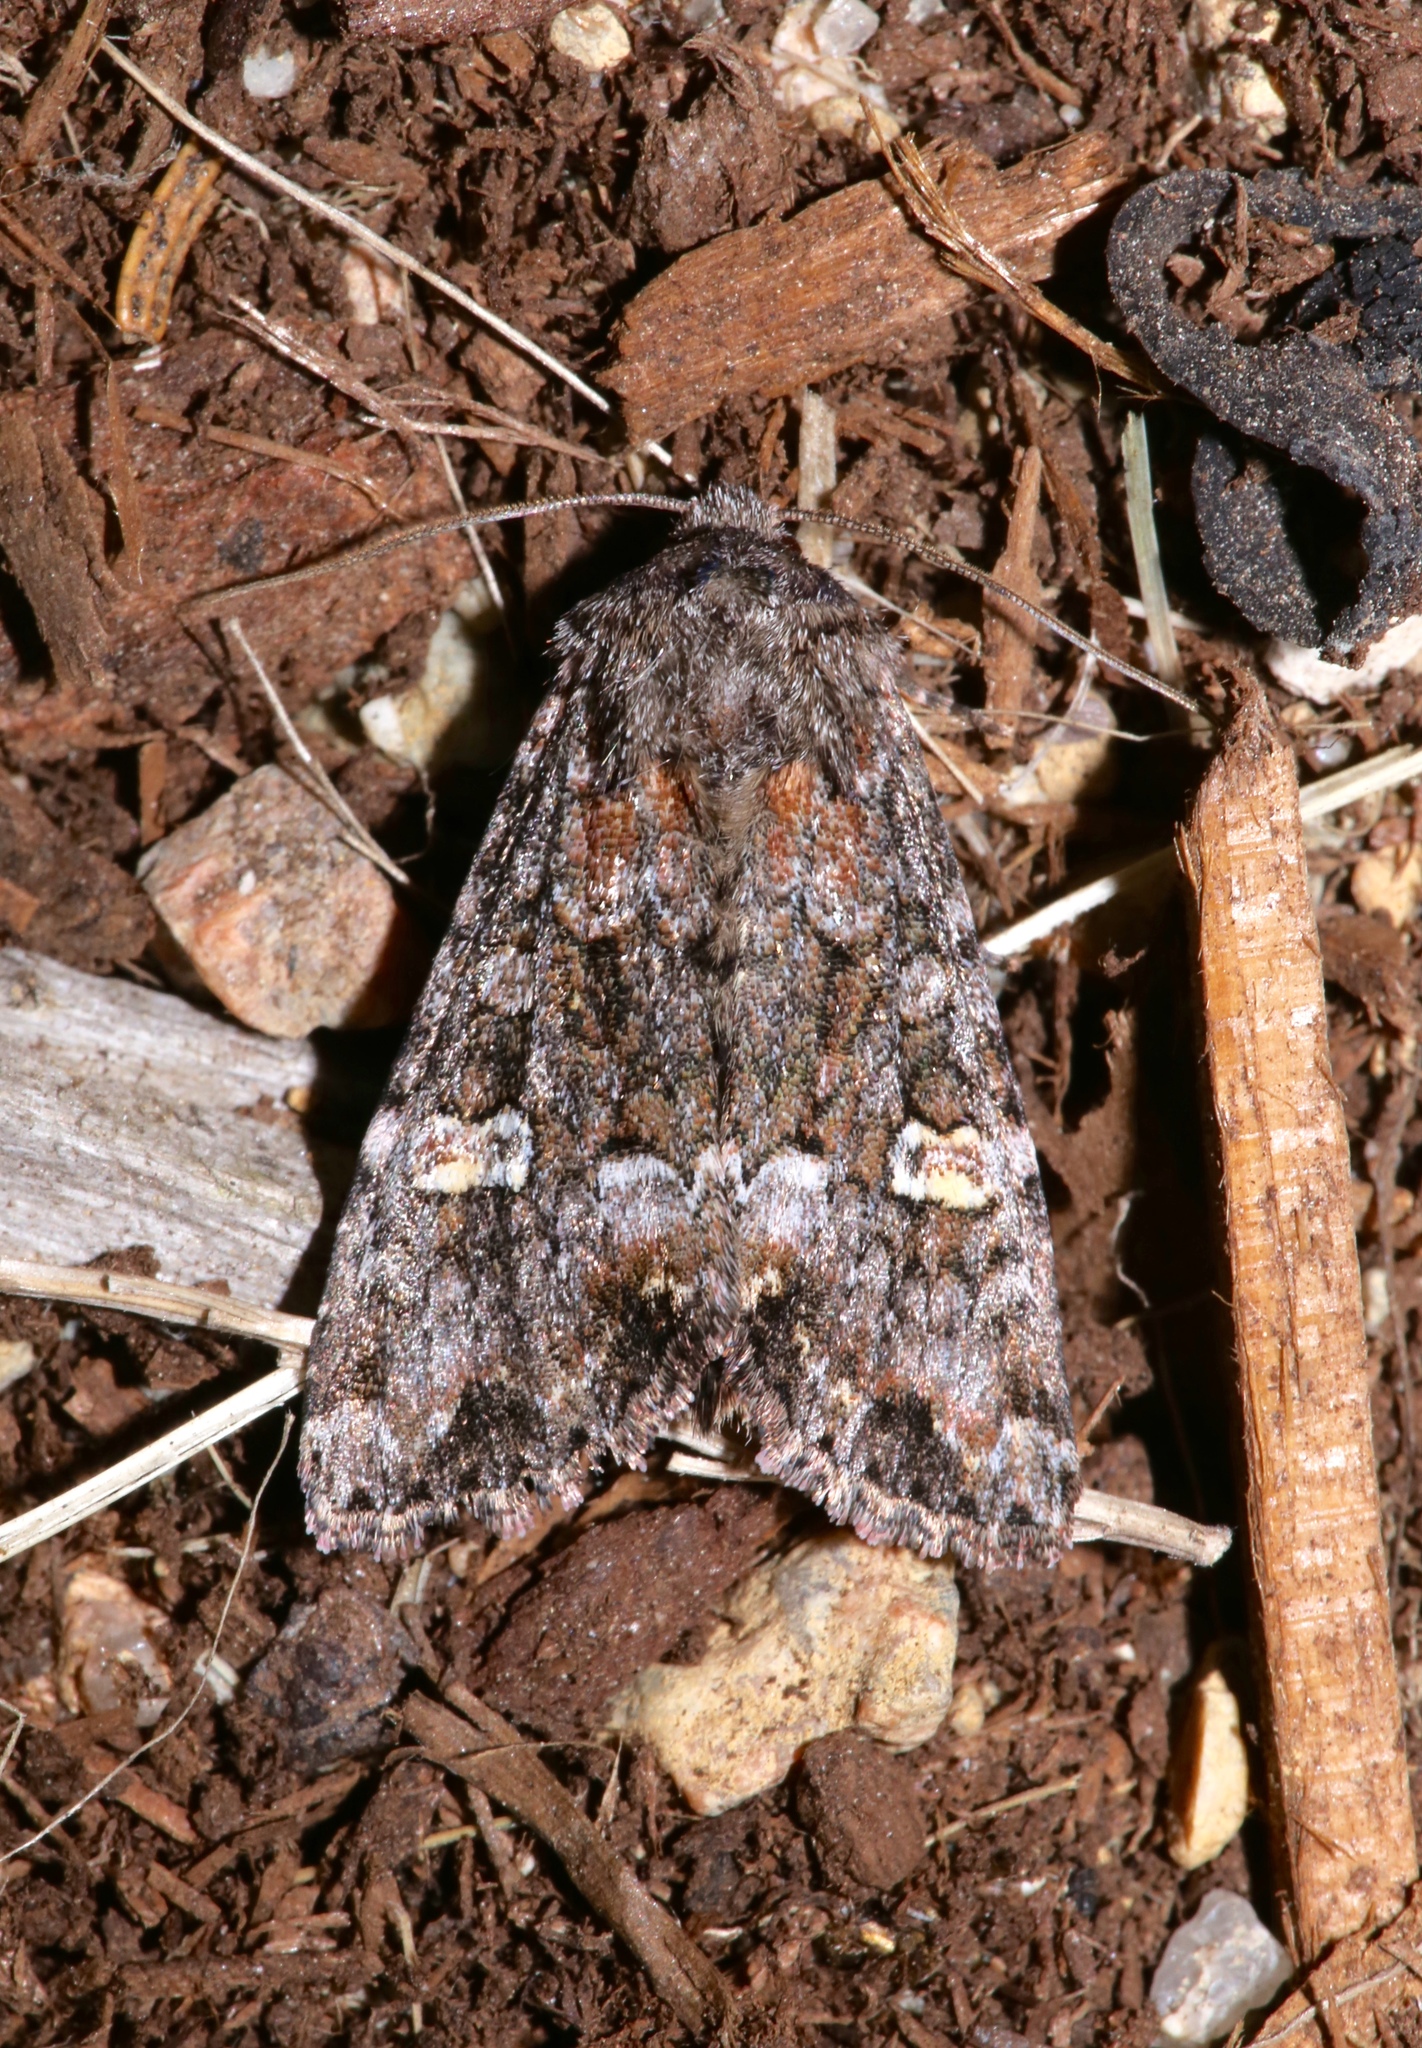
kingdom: Animalia
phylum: Arthropoda
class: Insecta
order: Lepidoptera
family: Noctuidae
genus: Spiramater
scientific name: Spiramater lutra
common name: Otter spiramater moth
